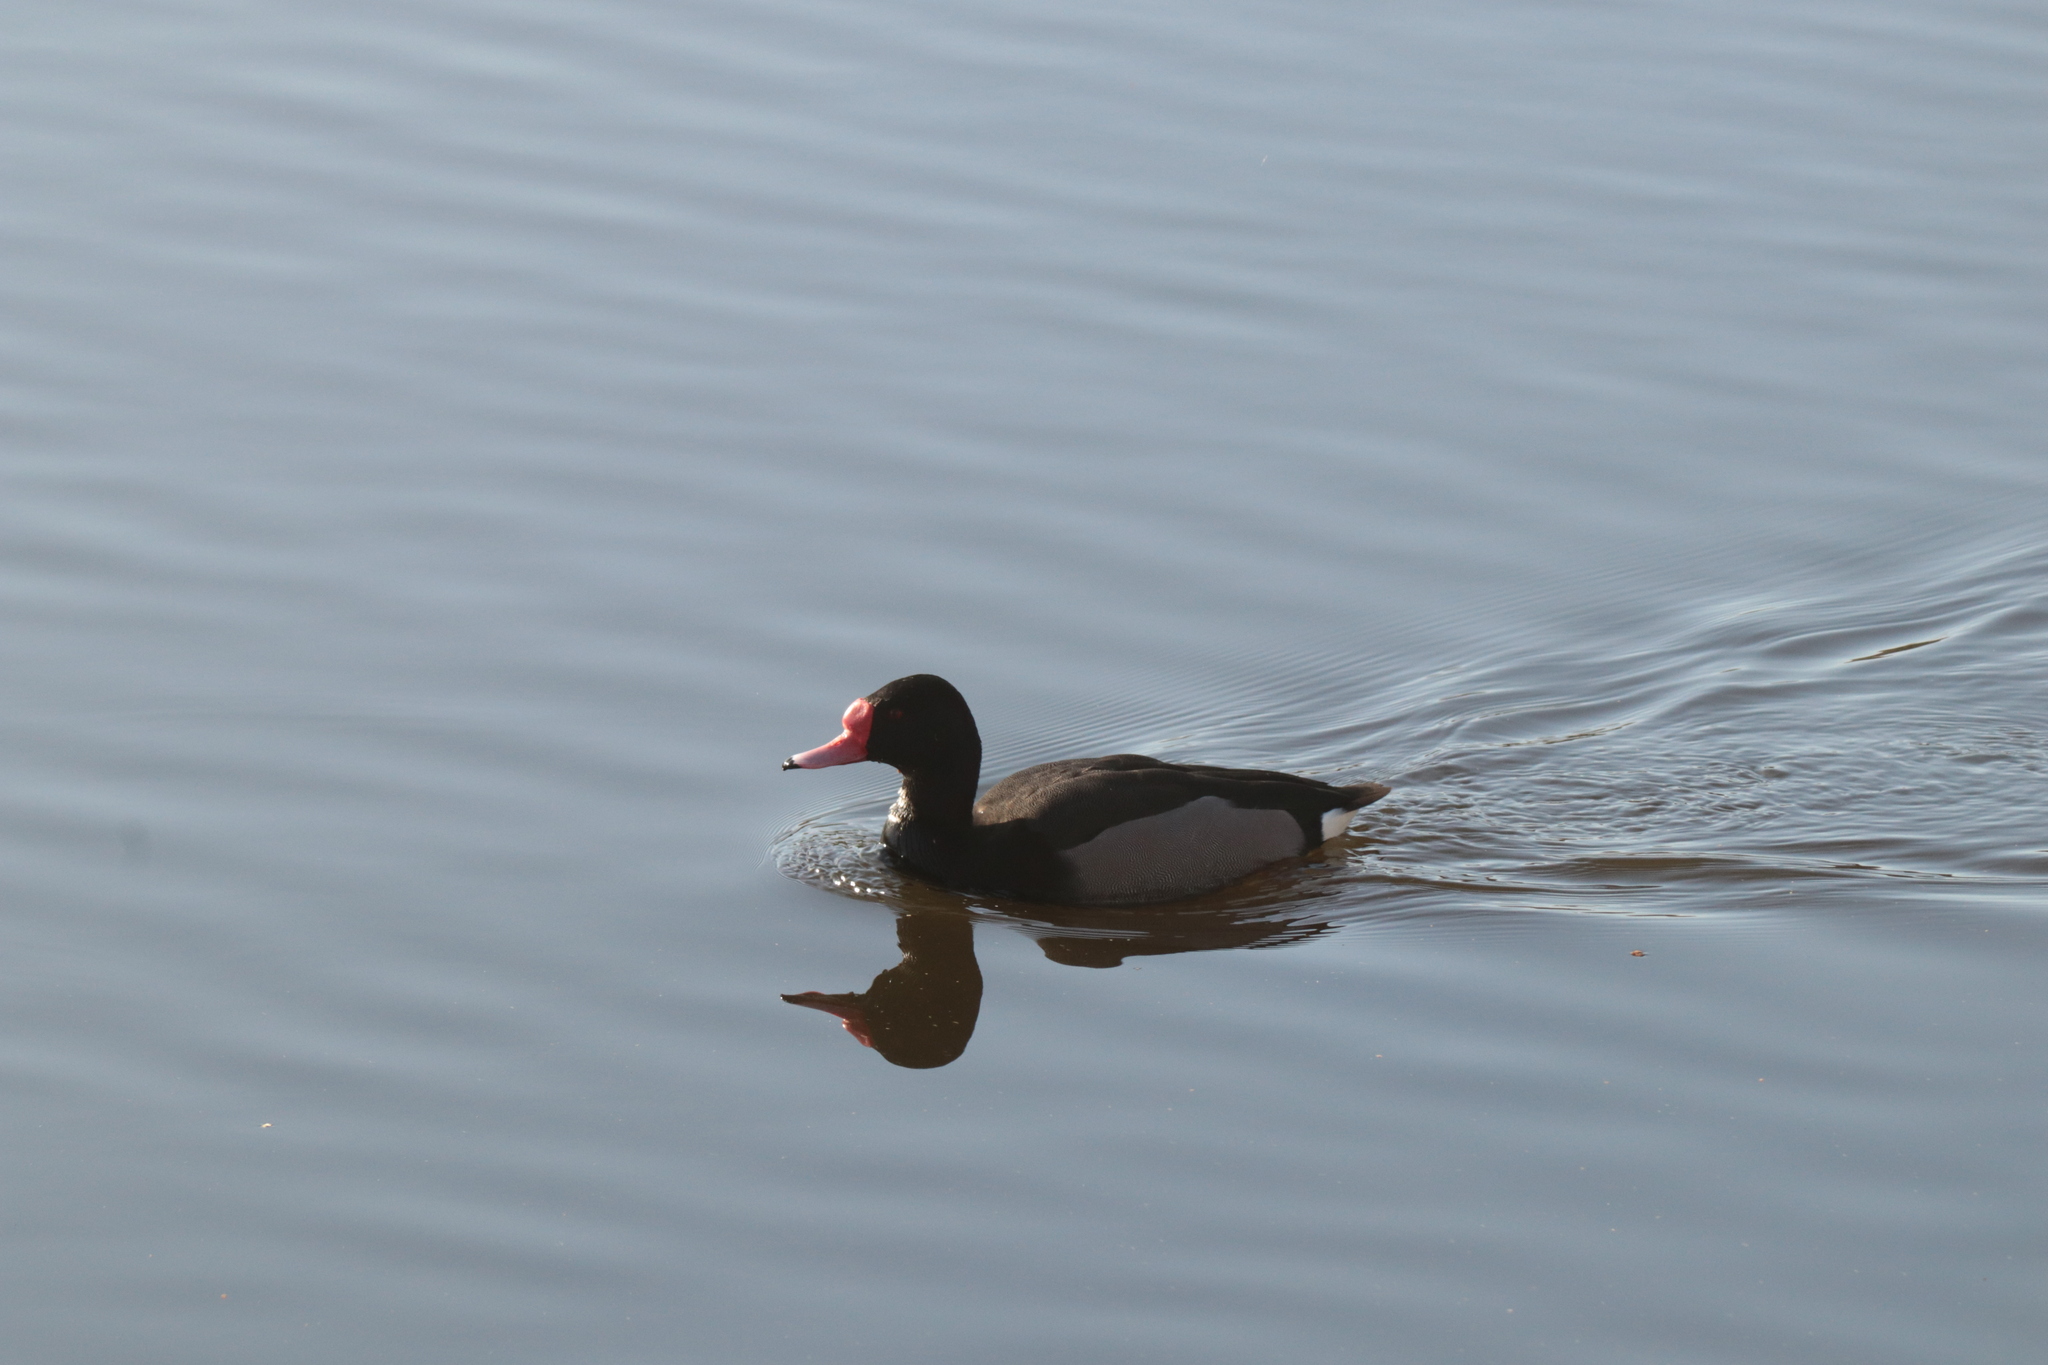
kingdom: Animalia
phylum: Chordata
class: Aves
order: Anseriformes
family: Anatidae
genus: Netta
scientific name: Netta peposaca
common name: Rosy-billed pochard
